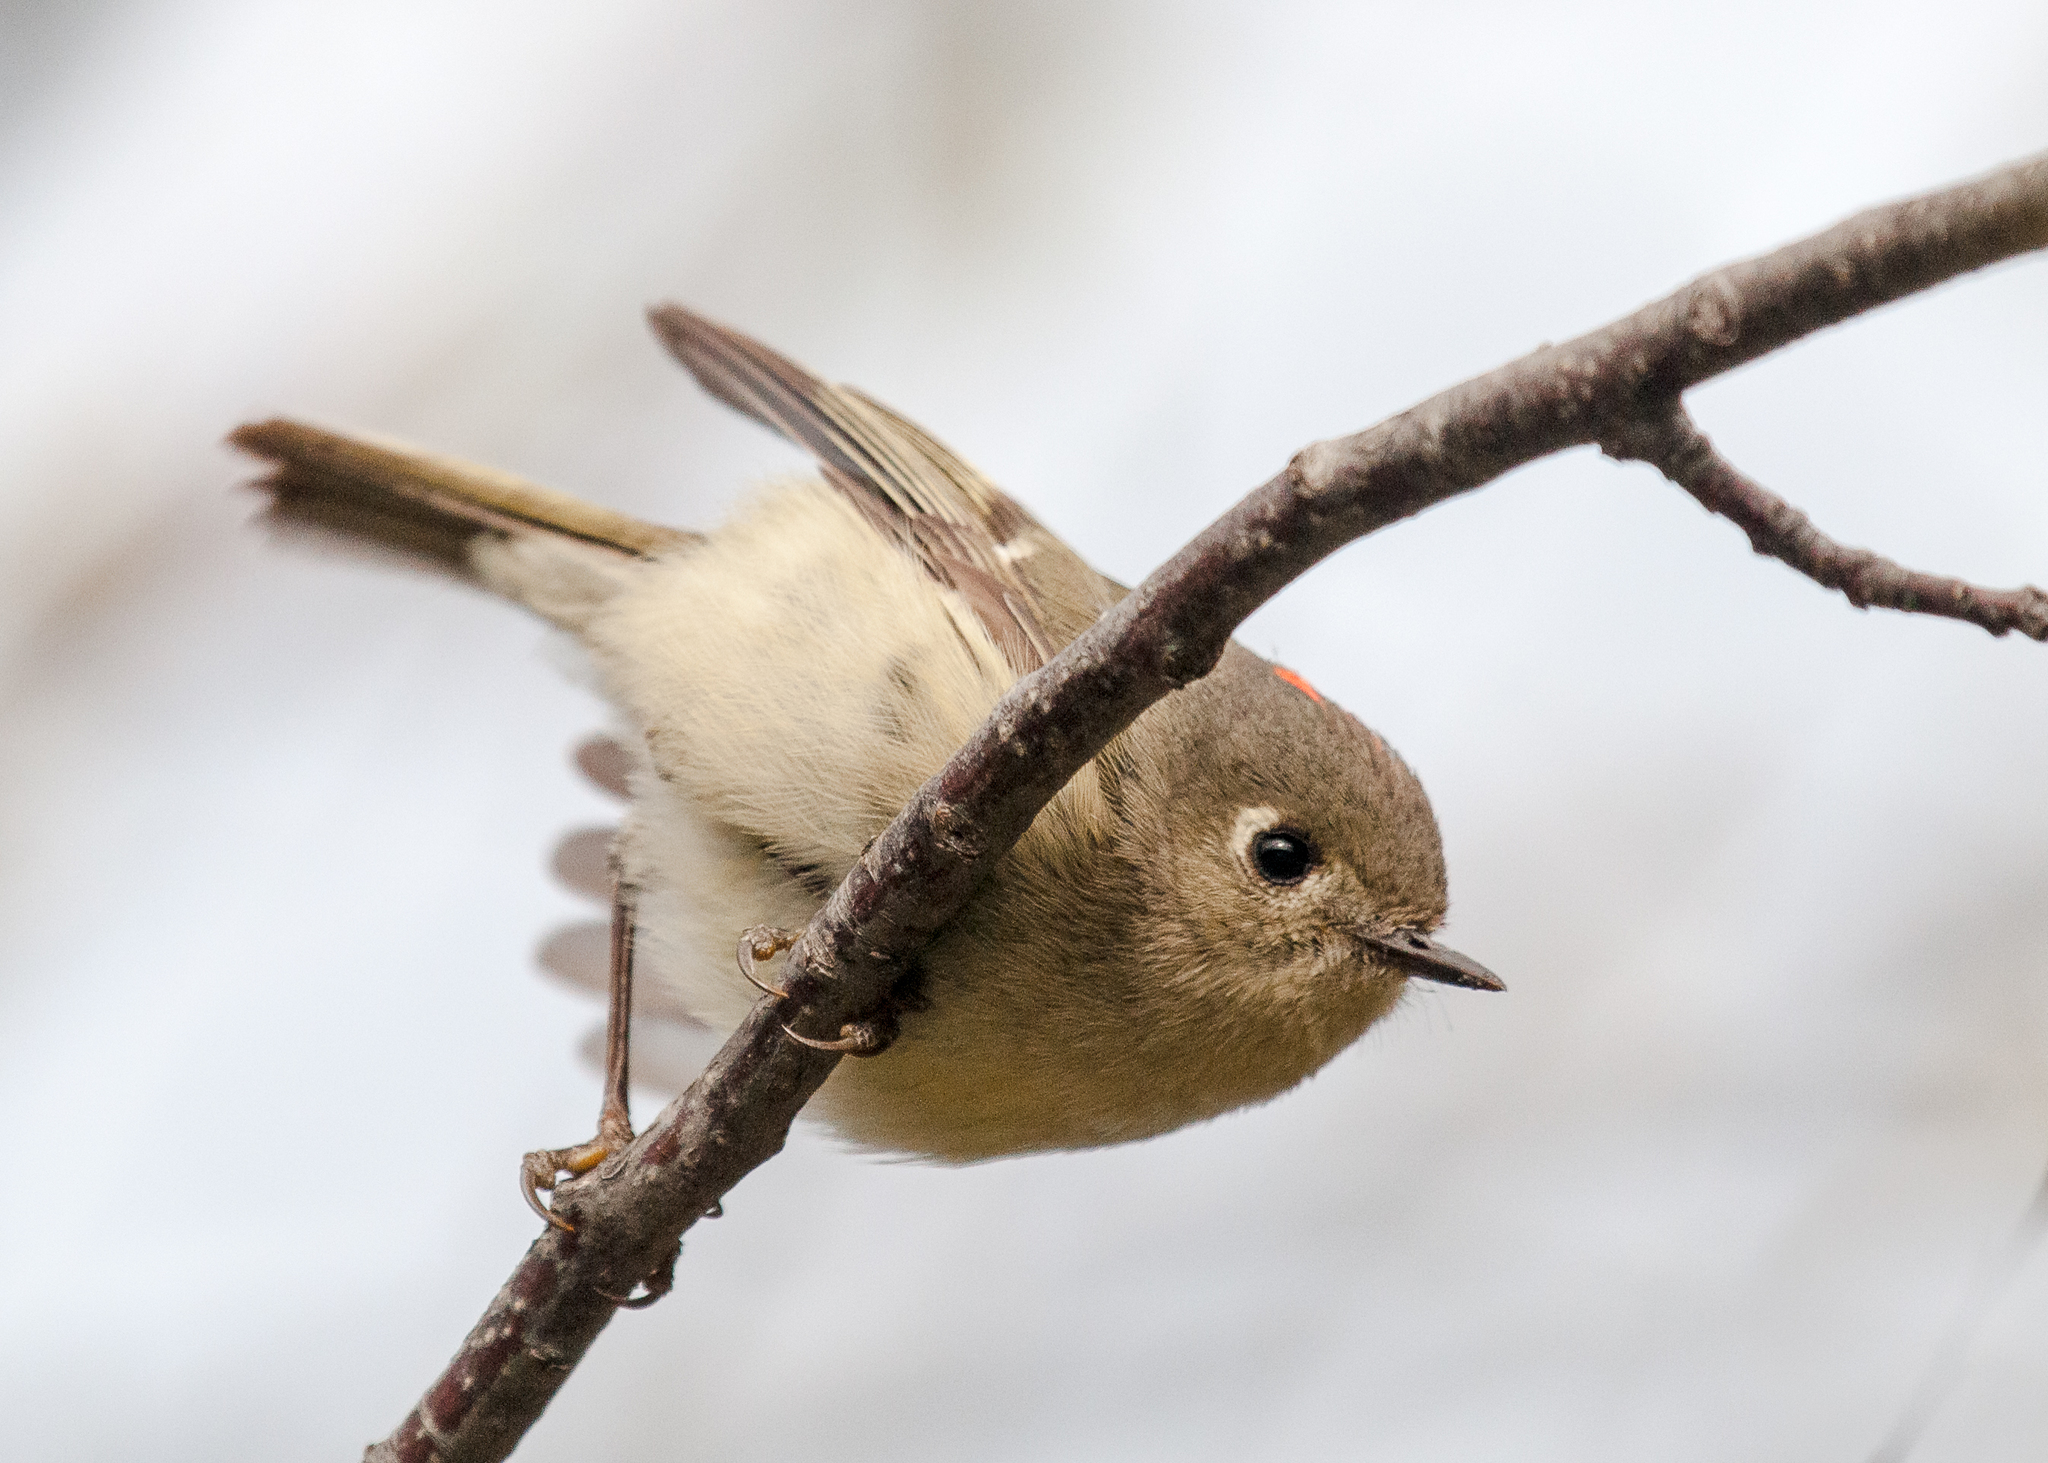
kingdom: Animalia
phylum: Chordata
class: Aves
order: Passeriformes
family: Regulidae
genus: Regulus
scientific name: Regulus calendula
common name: Ruby-crowned kinglet
